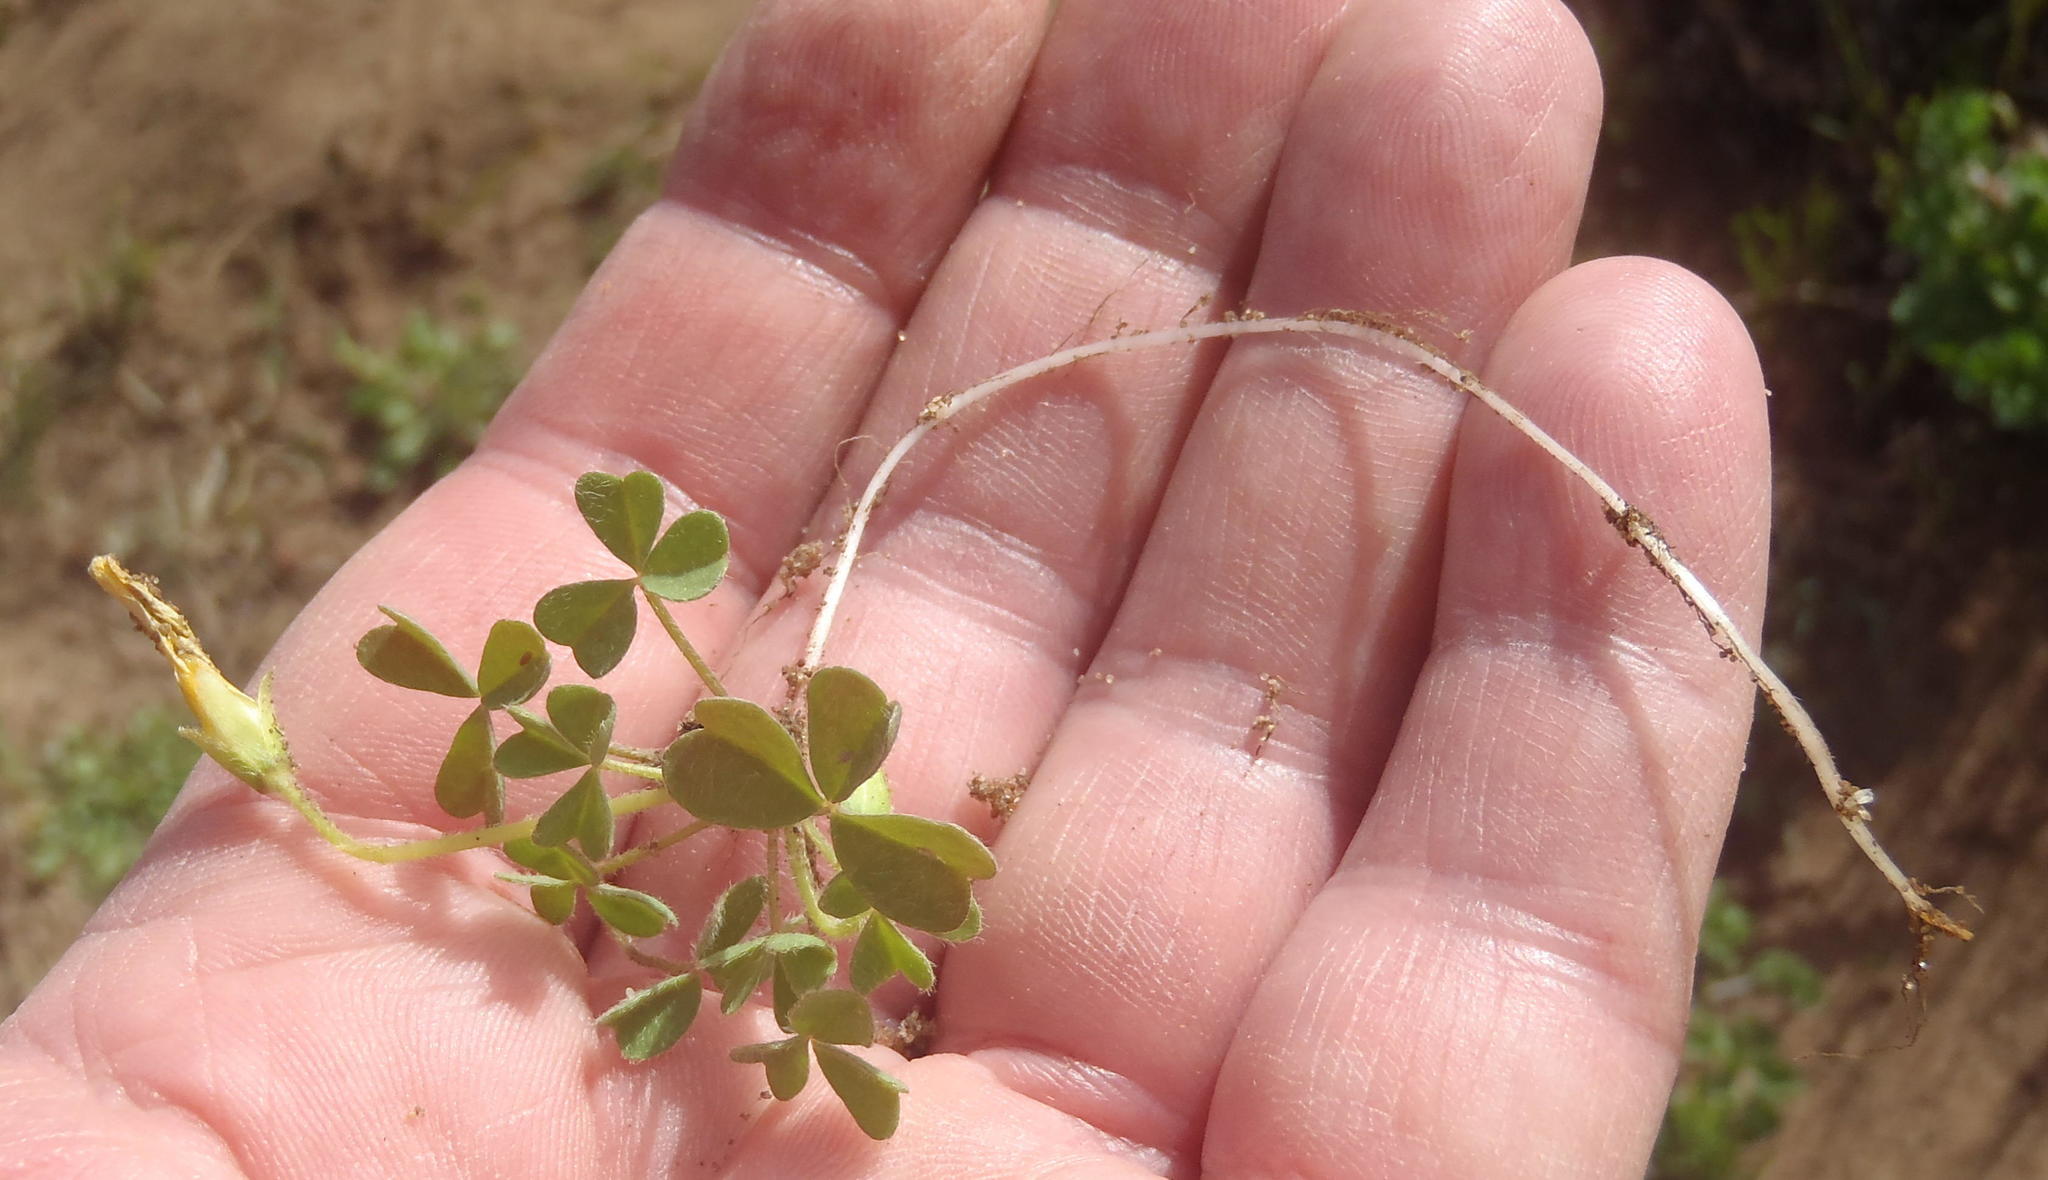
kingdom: Plantae
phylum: Tracheophyta
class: Magnoliopsida
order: Oxalidales
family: Oxalidaceae
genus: Oxalis
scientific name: Oxalis obtusa
